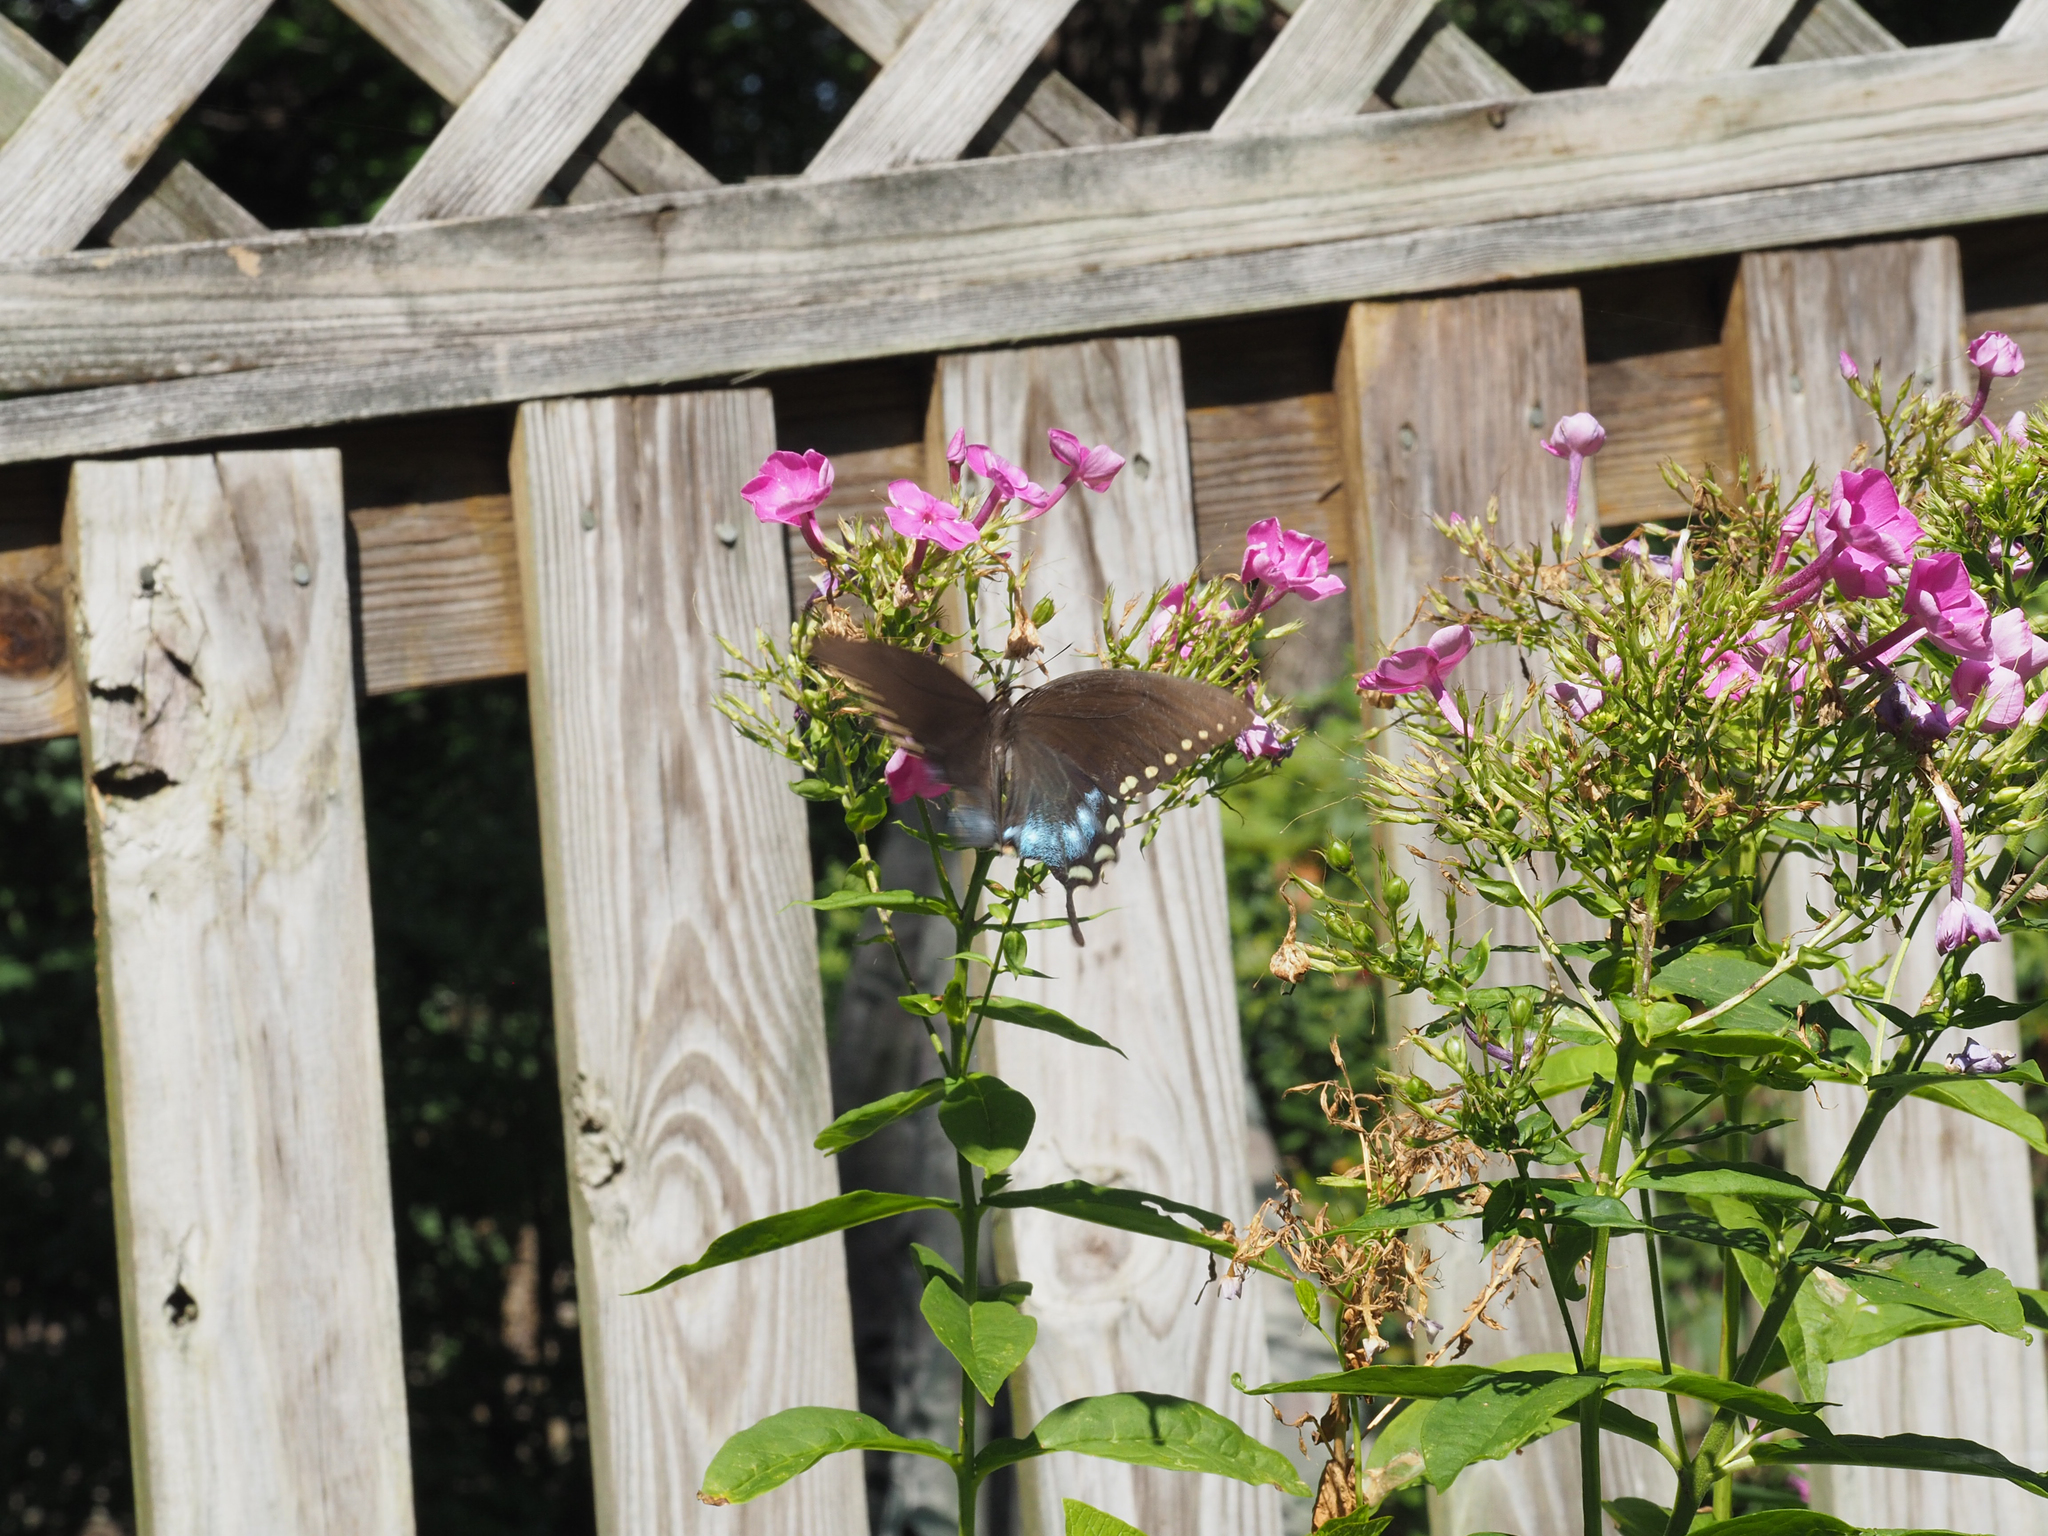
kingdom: Animalia
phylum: Arthropoda
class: Insecta
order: Lepidoptera
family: Papilionidae
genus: Papilio
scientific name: Papilio troilus
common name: Spicebush swallowtail
